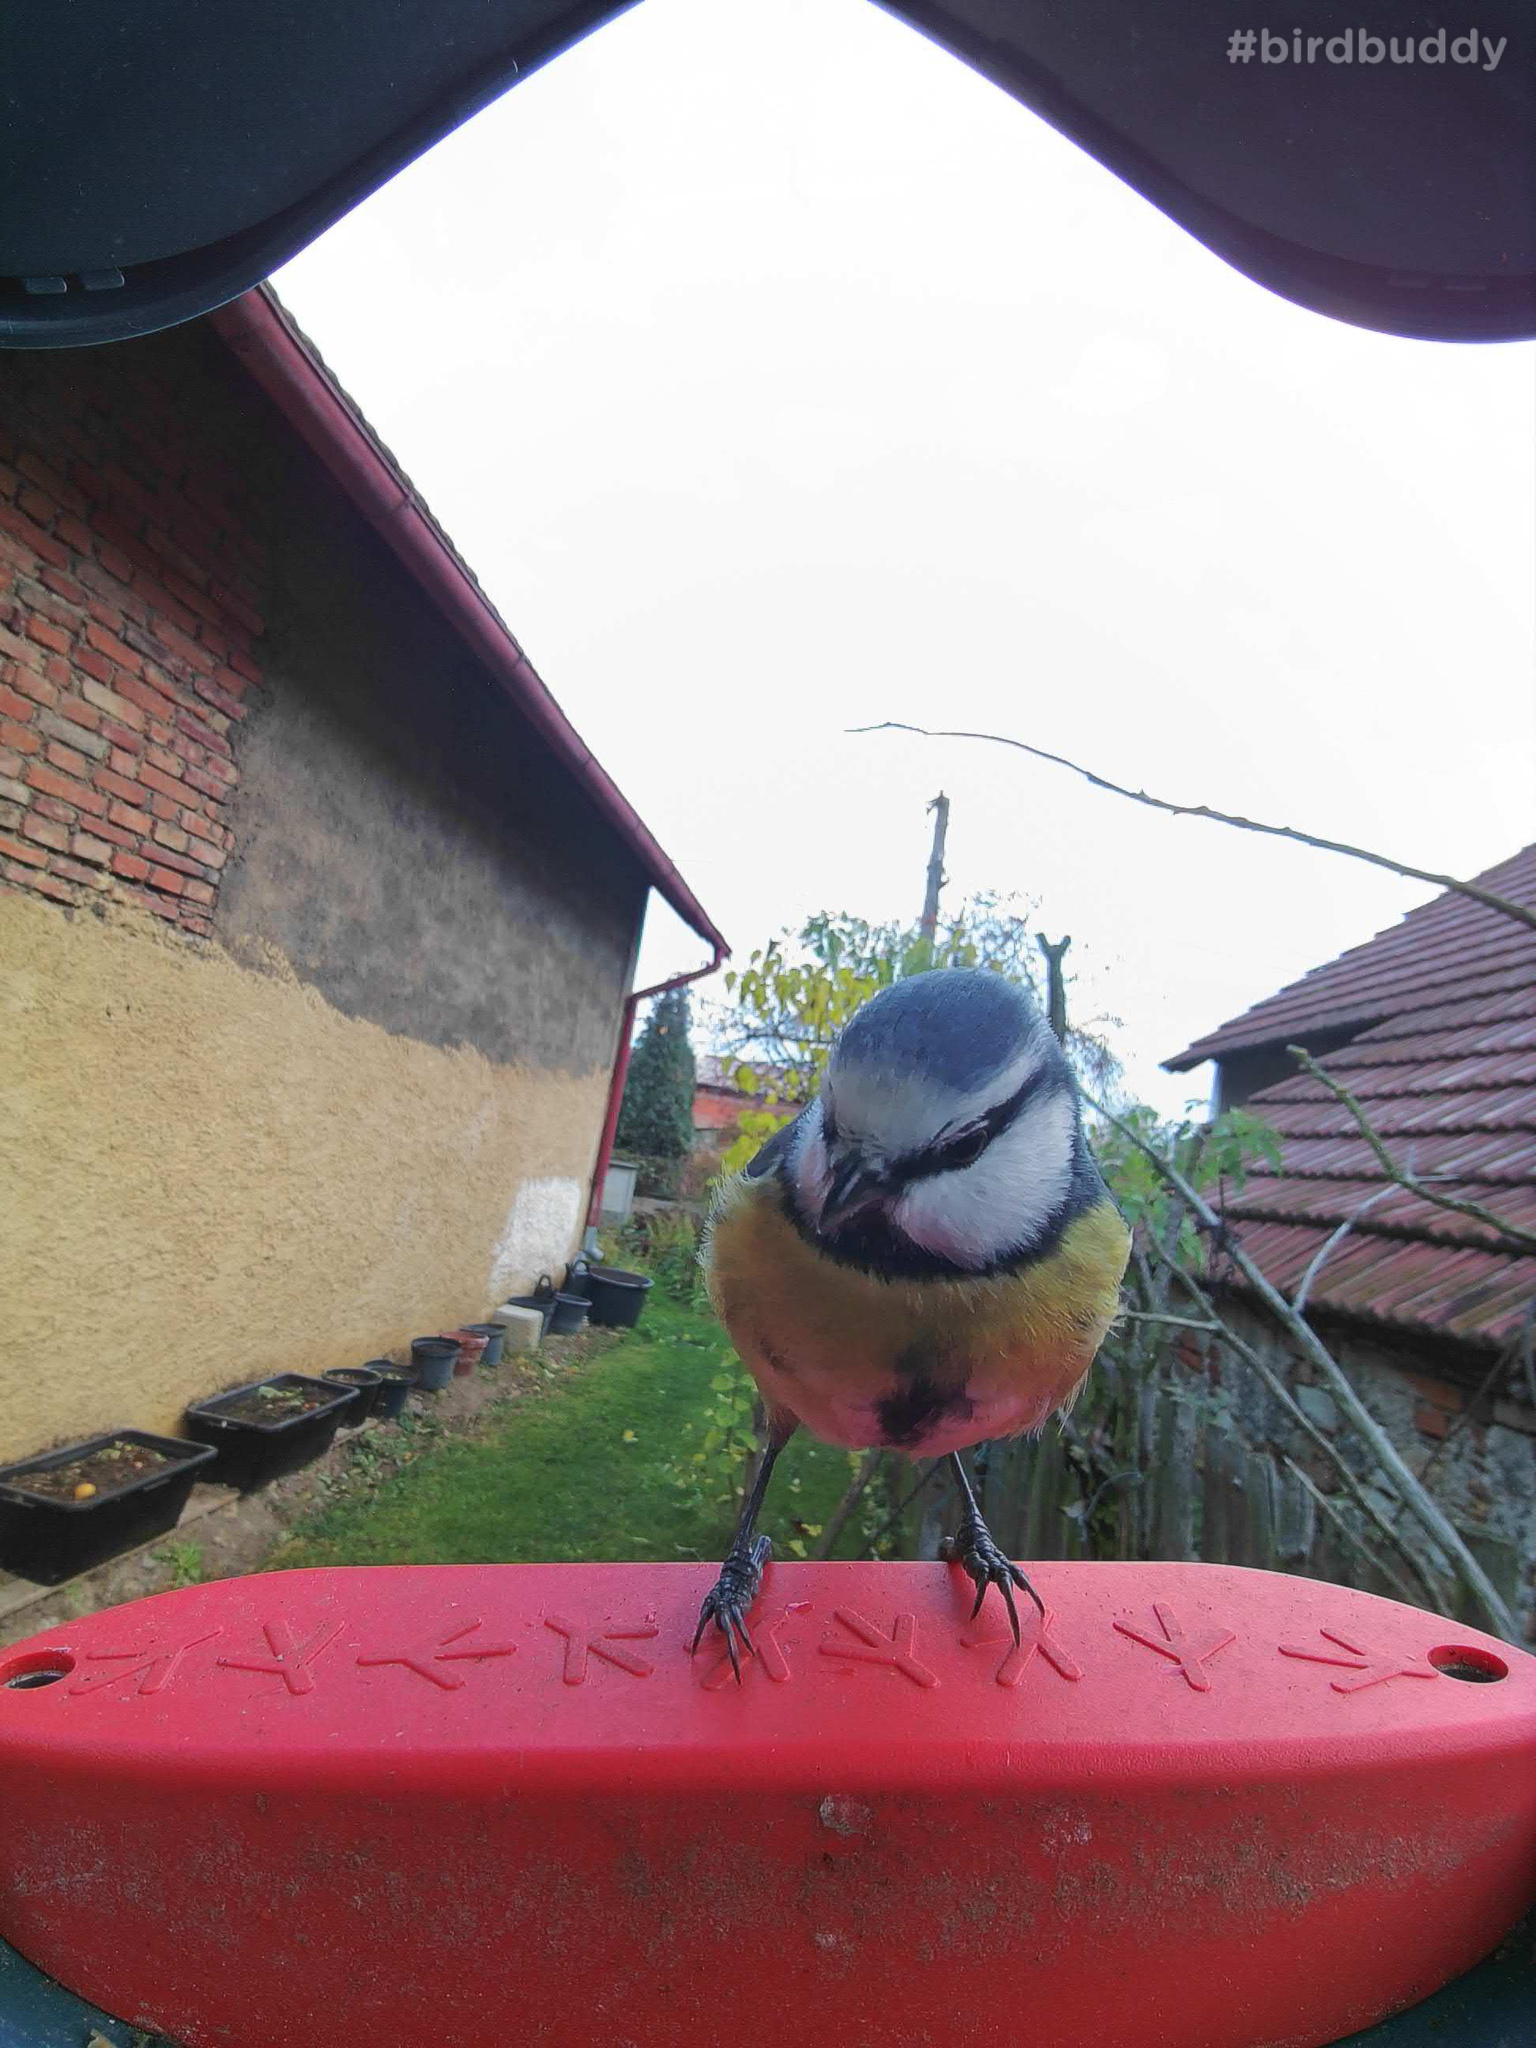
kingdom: Animalia
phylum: Chordata
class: Aves
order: Passeriformes
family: Paridae
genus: Cyanistes
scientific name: Cyanistes caeruleus
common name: Eurasian blue tit
